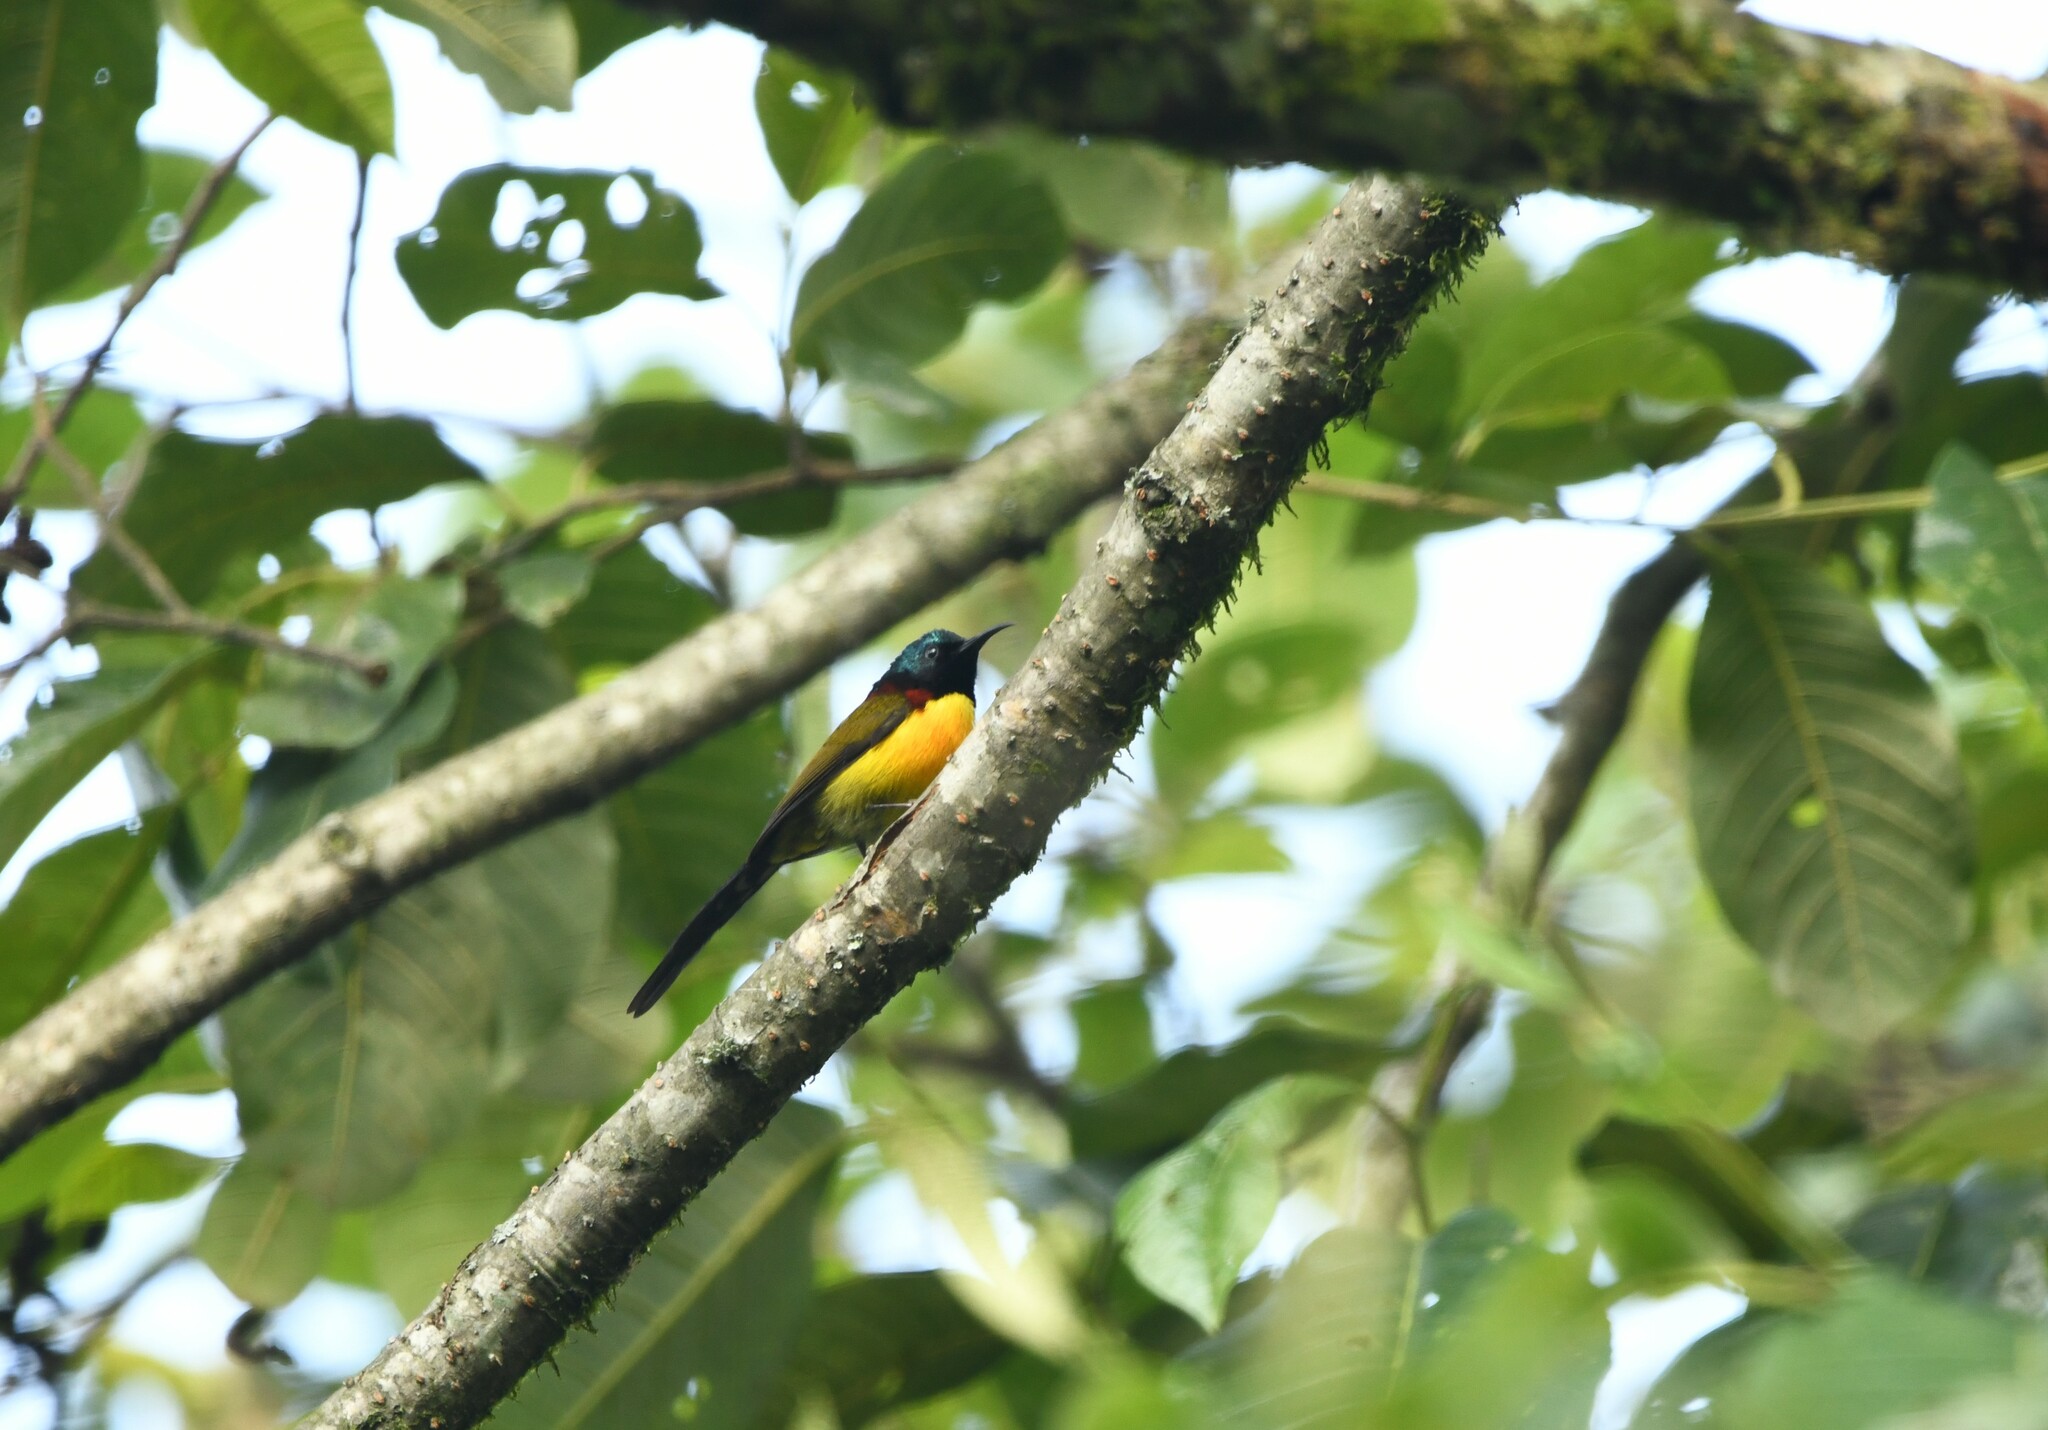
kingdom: Animalia
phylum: Chordata
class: Aves
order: Passeriformes
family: Nectariniidae
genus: Aethopyga
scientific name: Aethopyga nipalensis
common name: Green-tailed sunbird
